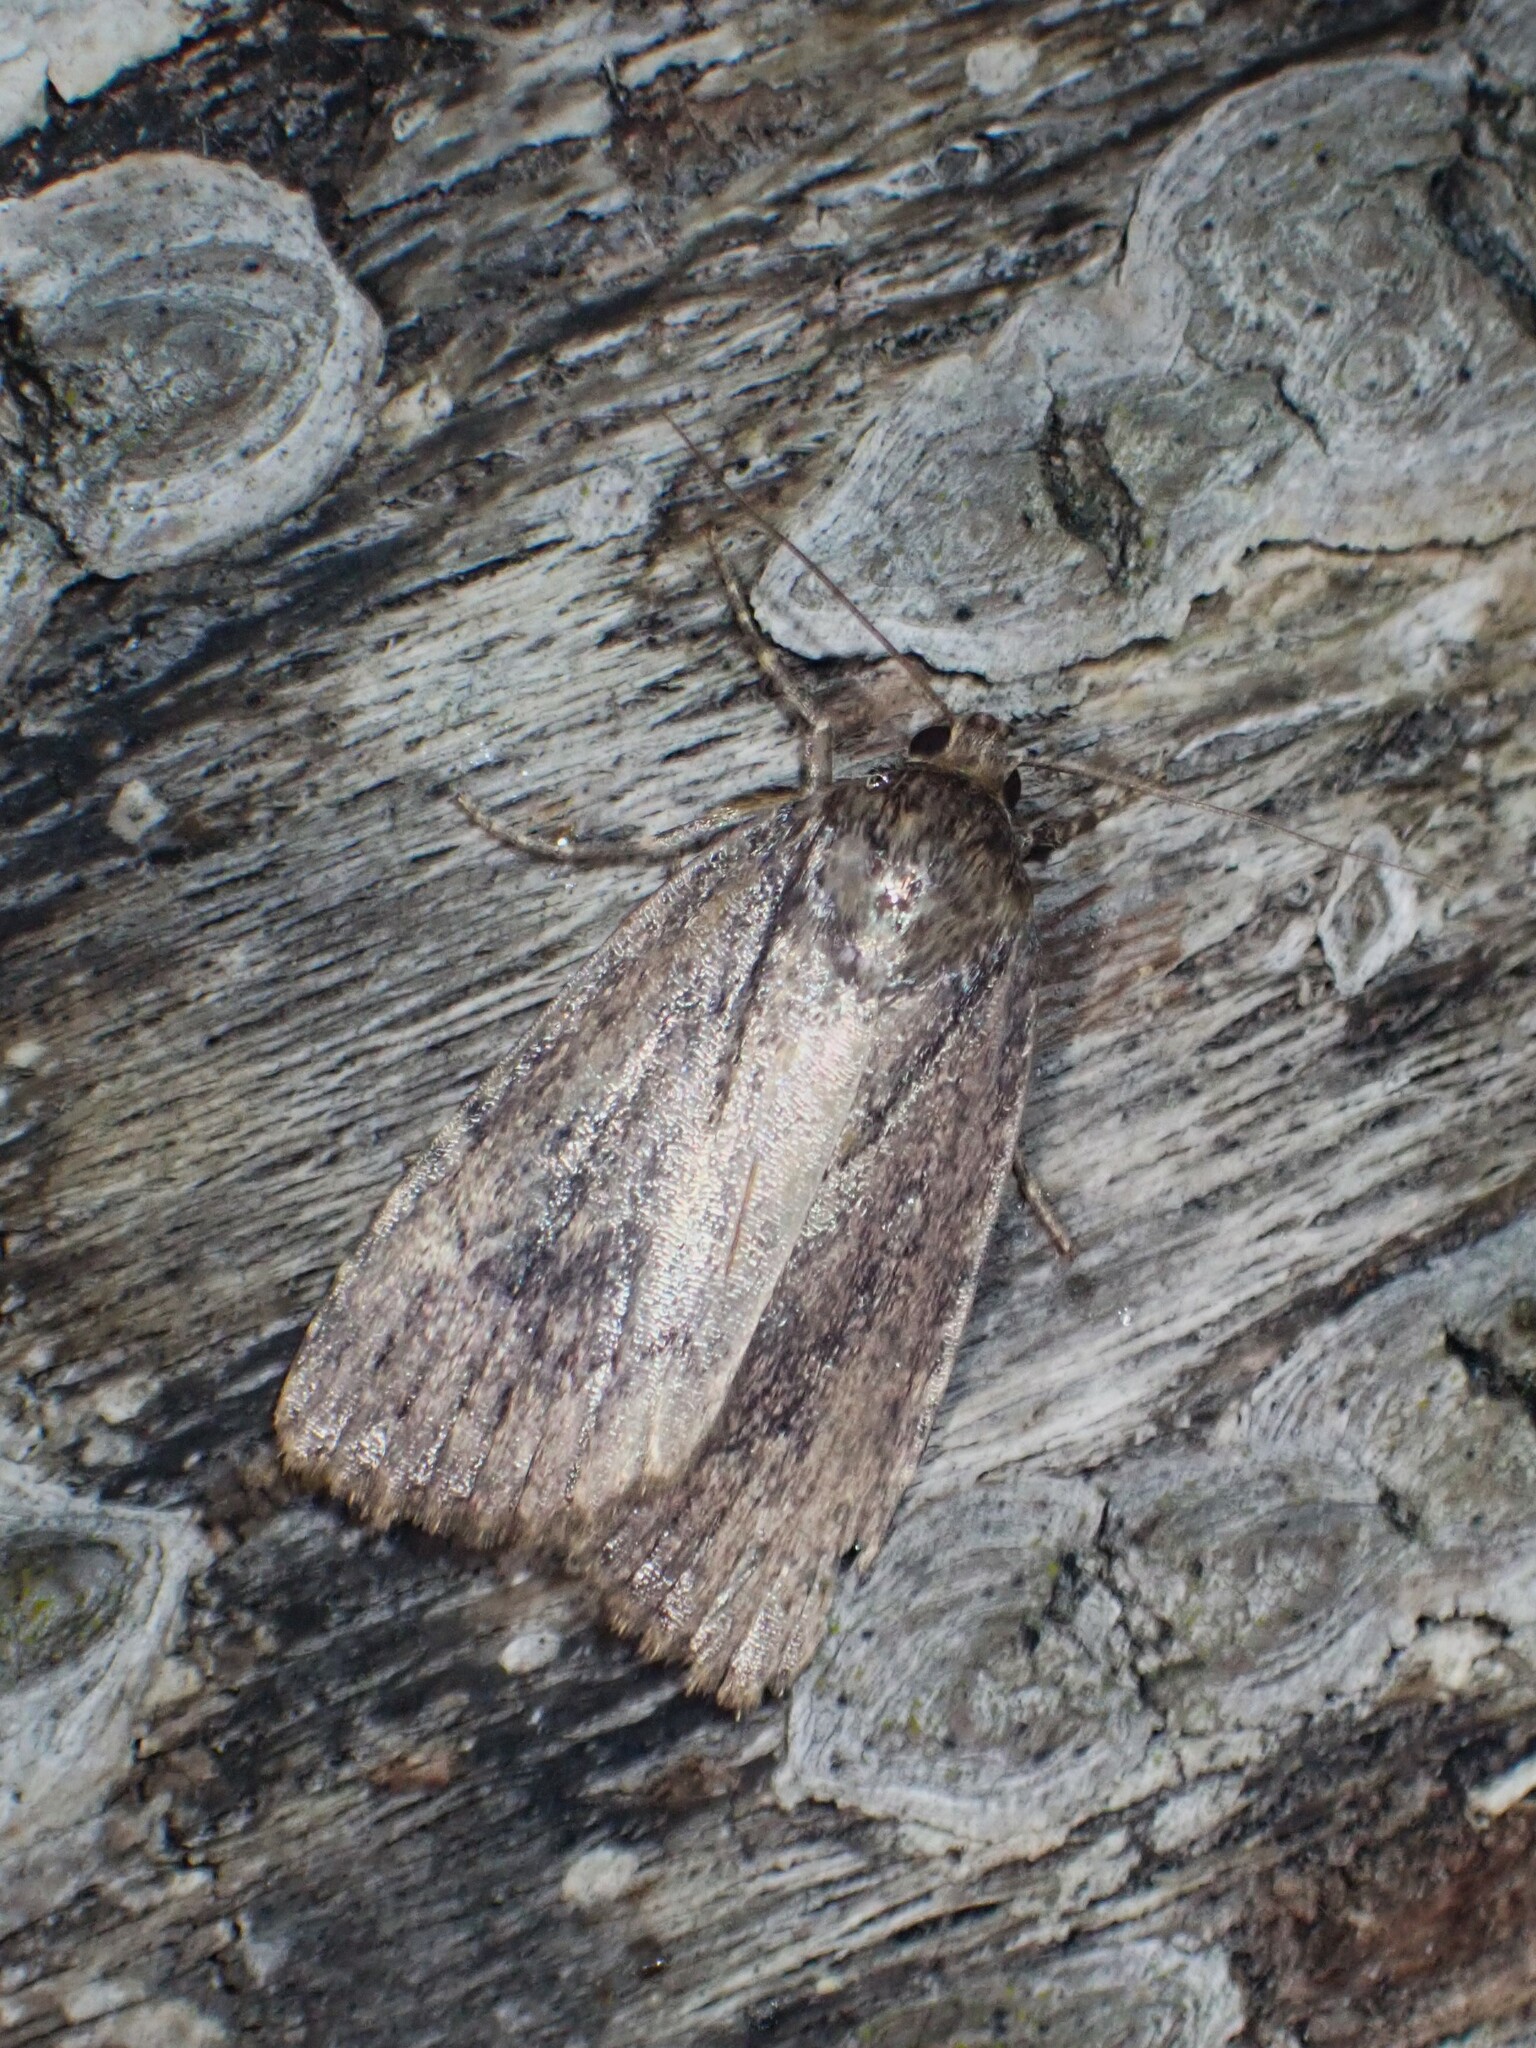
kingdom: Animalia
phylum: Arthropoda
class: Insecta
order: Lepidoptera
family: Noctuidae
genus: Amphipyra
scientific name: Amphipyra pyramidoides
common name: American copper underwing
